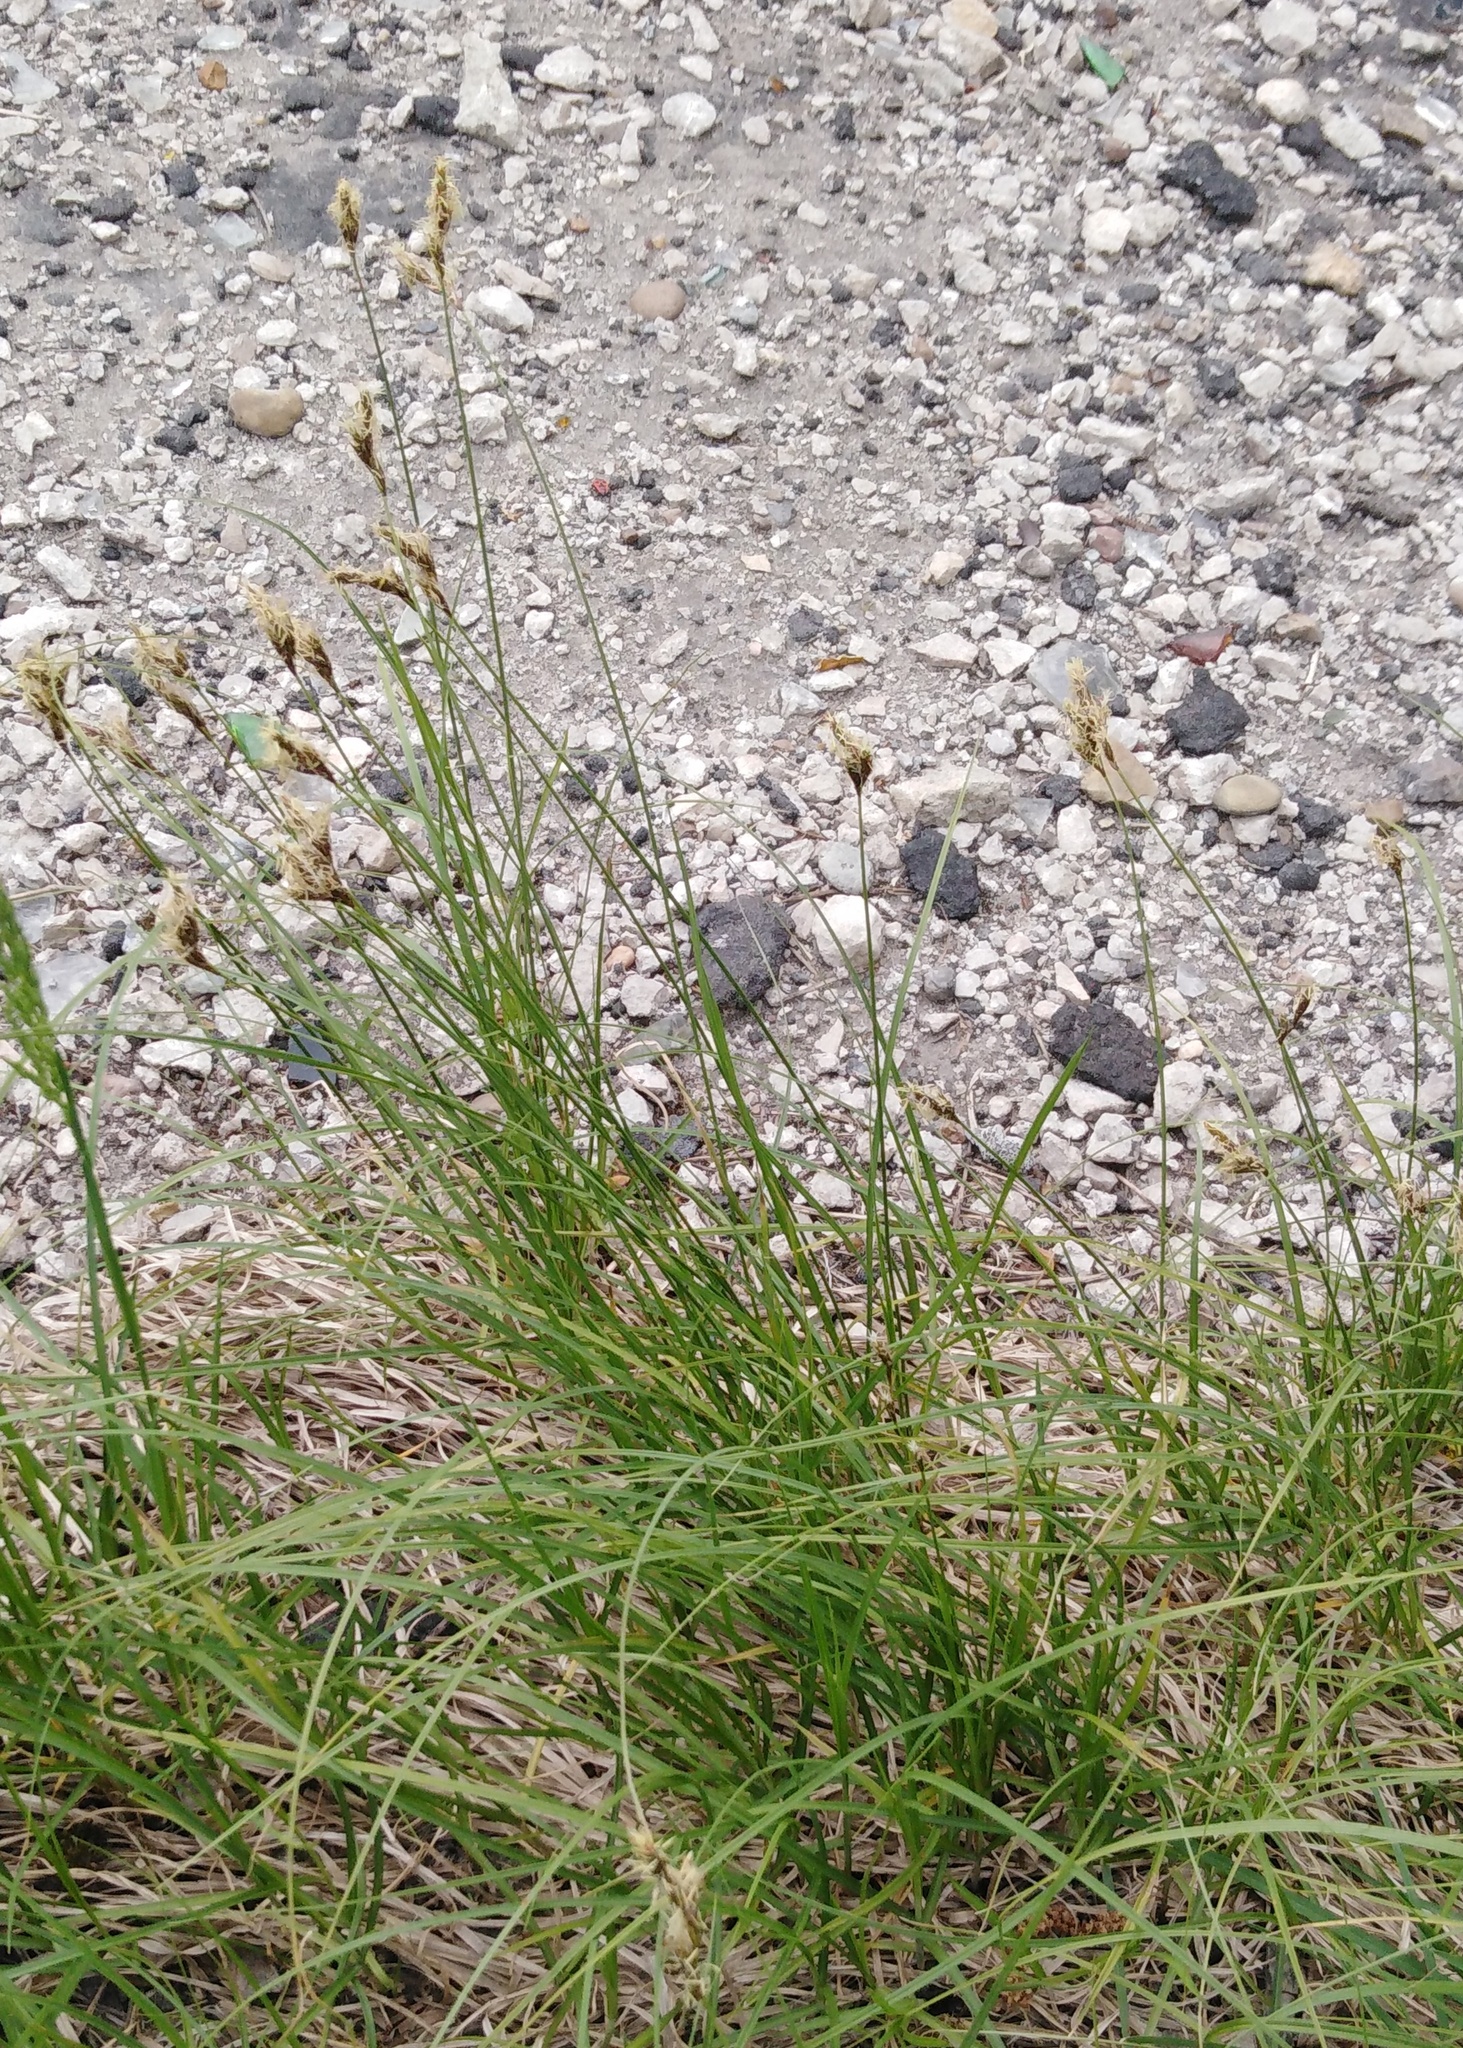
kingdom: Plantae
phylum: Tracheophyta
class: Liliopsida
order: Poales
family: Cyperaceae
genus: Carex
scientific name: Carex praecox
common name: Early sedge
